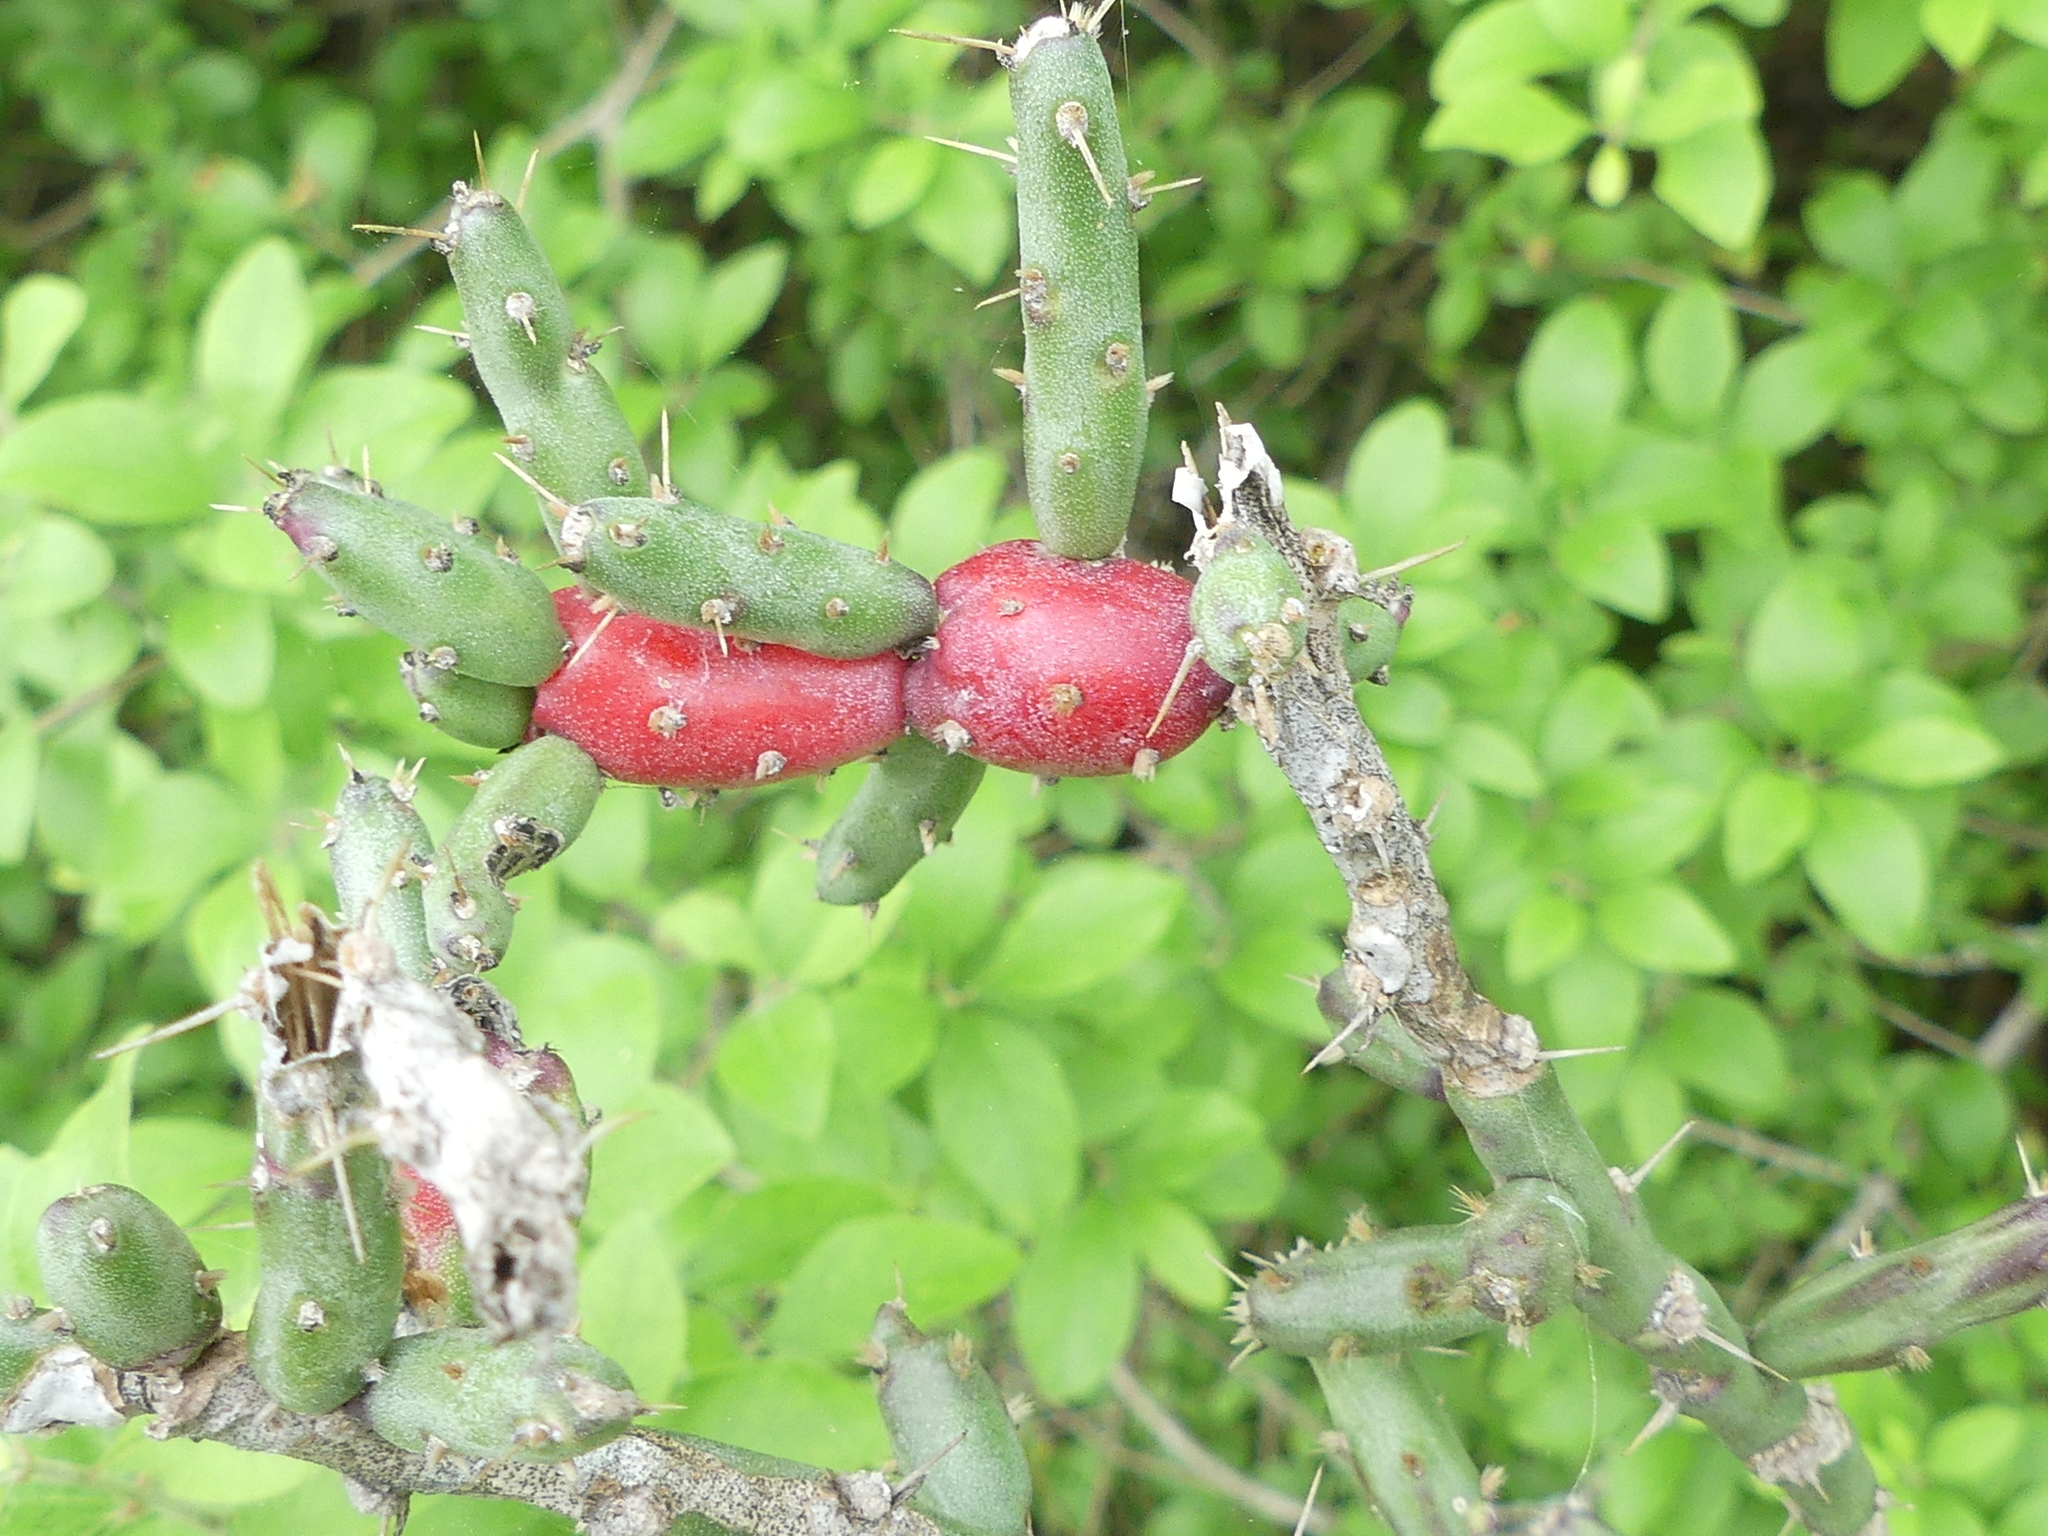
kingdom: Plantae
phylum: Tracheophyta
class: Magnoliopsida
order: Caryophyllales
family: Cactaceae
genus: Cylindropuntia
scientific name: Cylindropuntia leptocaulis
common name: Christmas cactus
